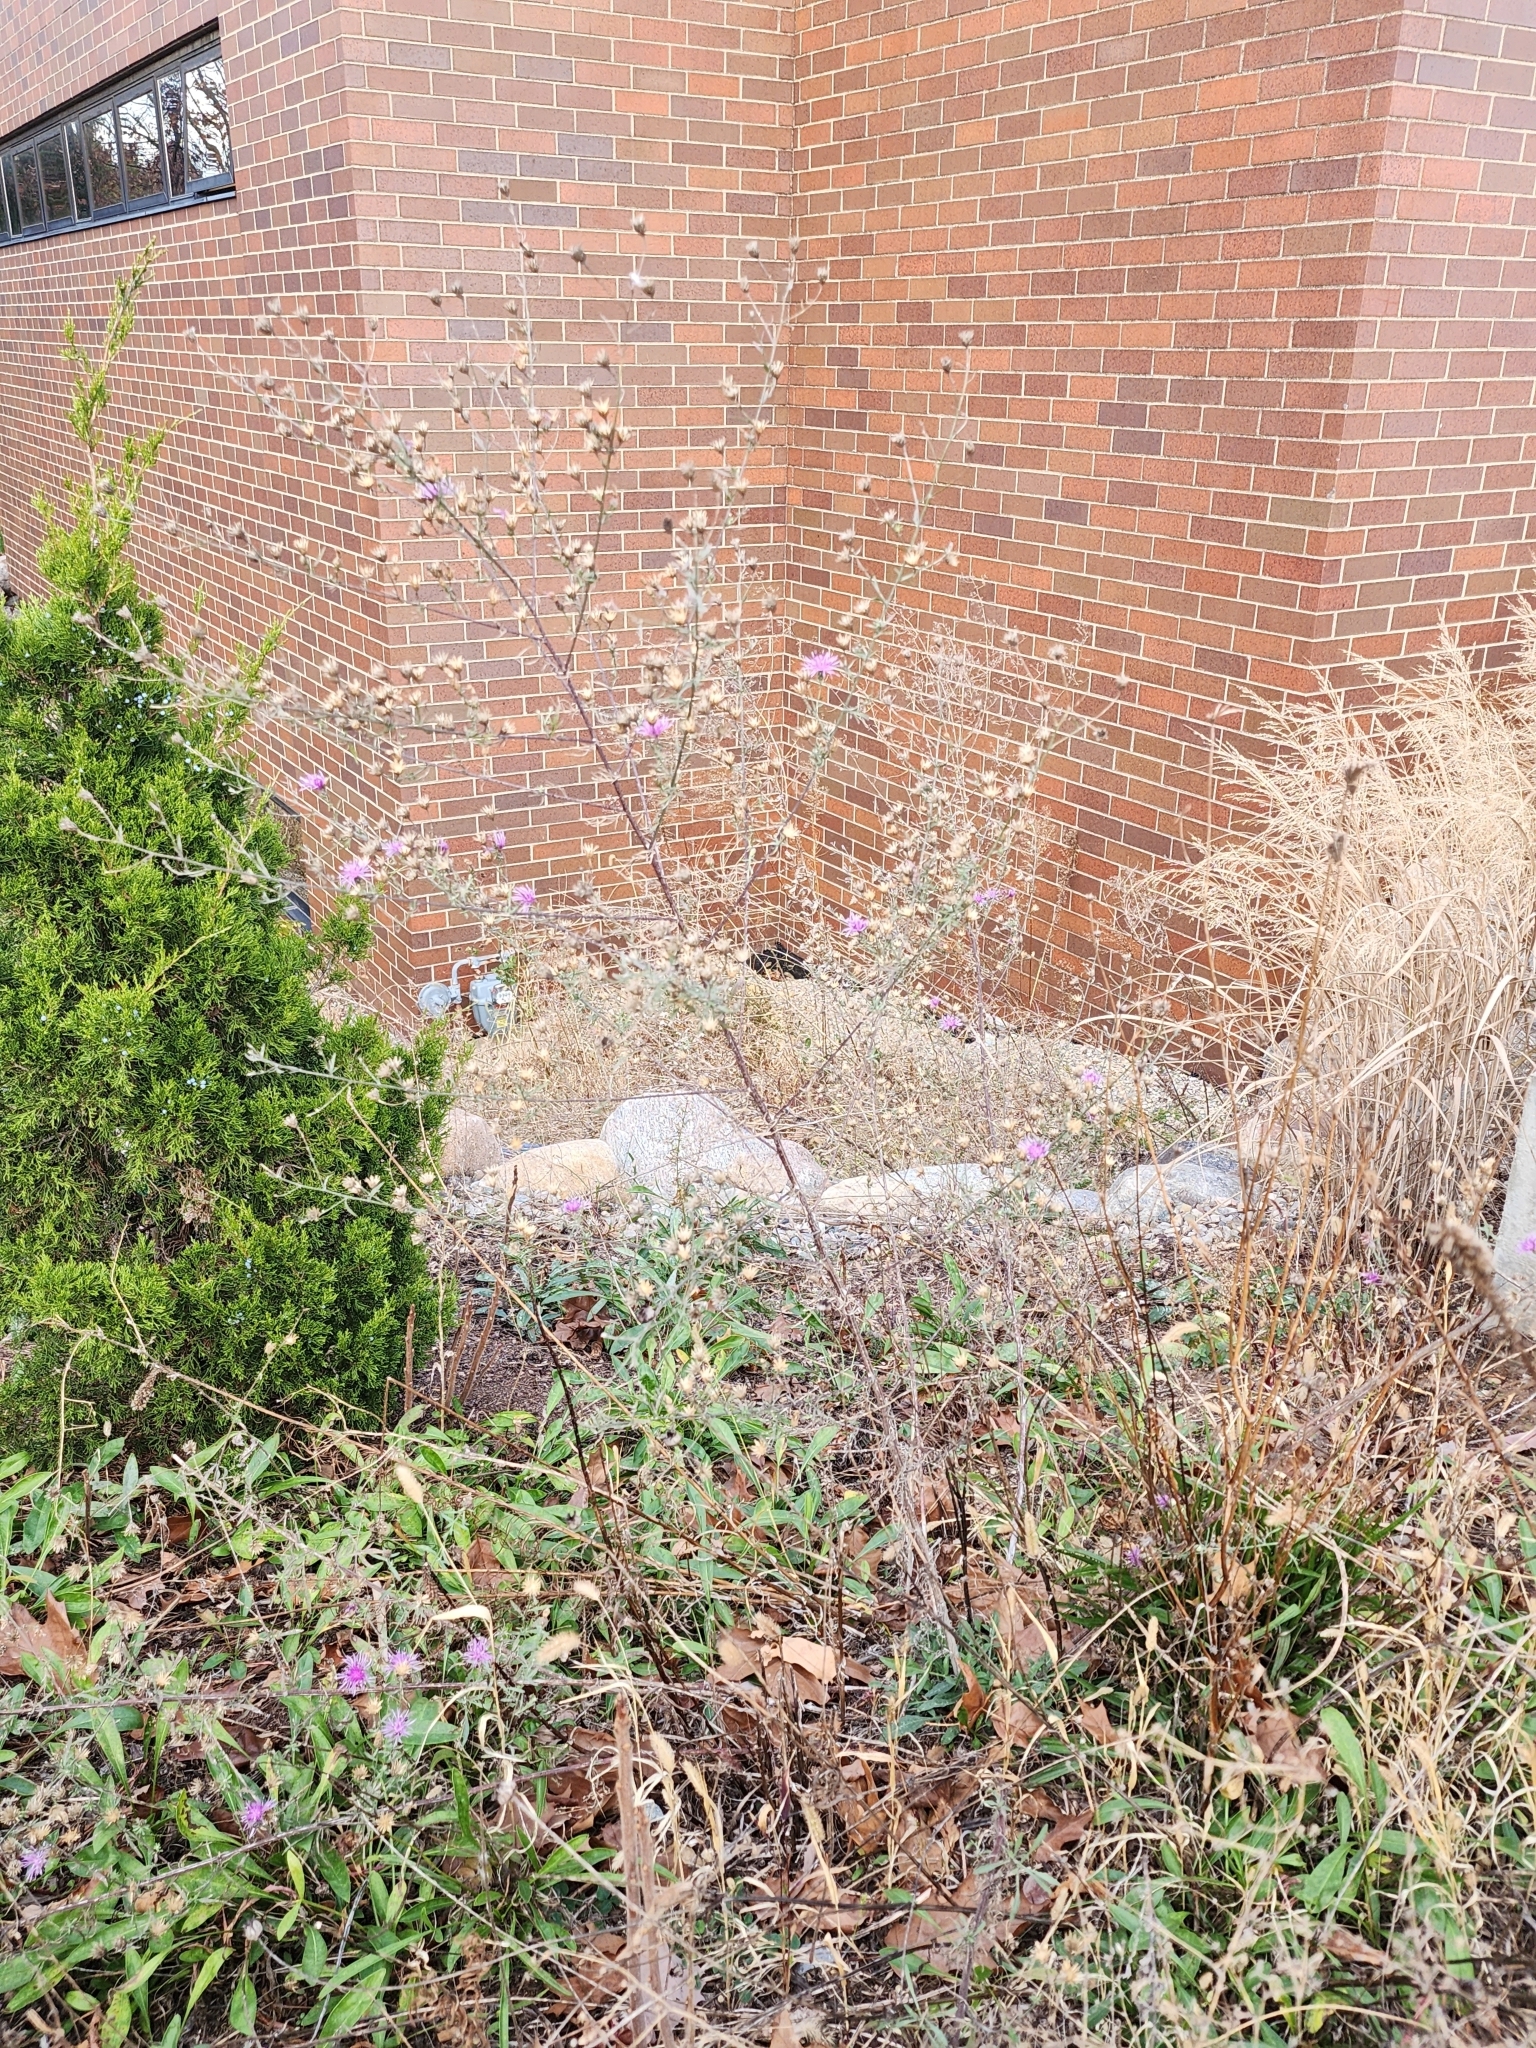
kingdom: Plantae
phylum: Tracheophyta
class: Magnoliopsida
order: Asterales
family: Asteraceae
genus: Centaurea
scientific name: Centaurea stoebe
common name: Spotted knapweed
